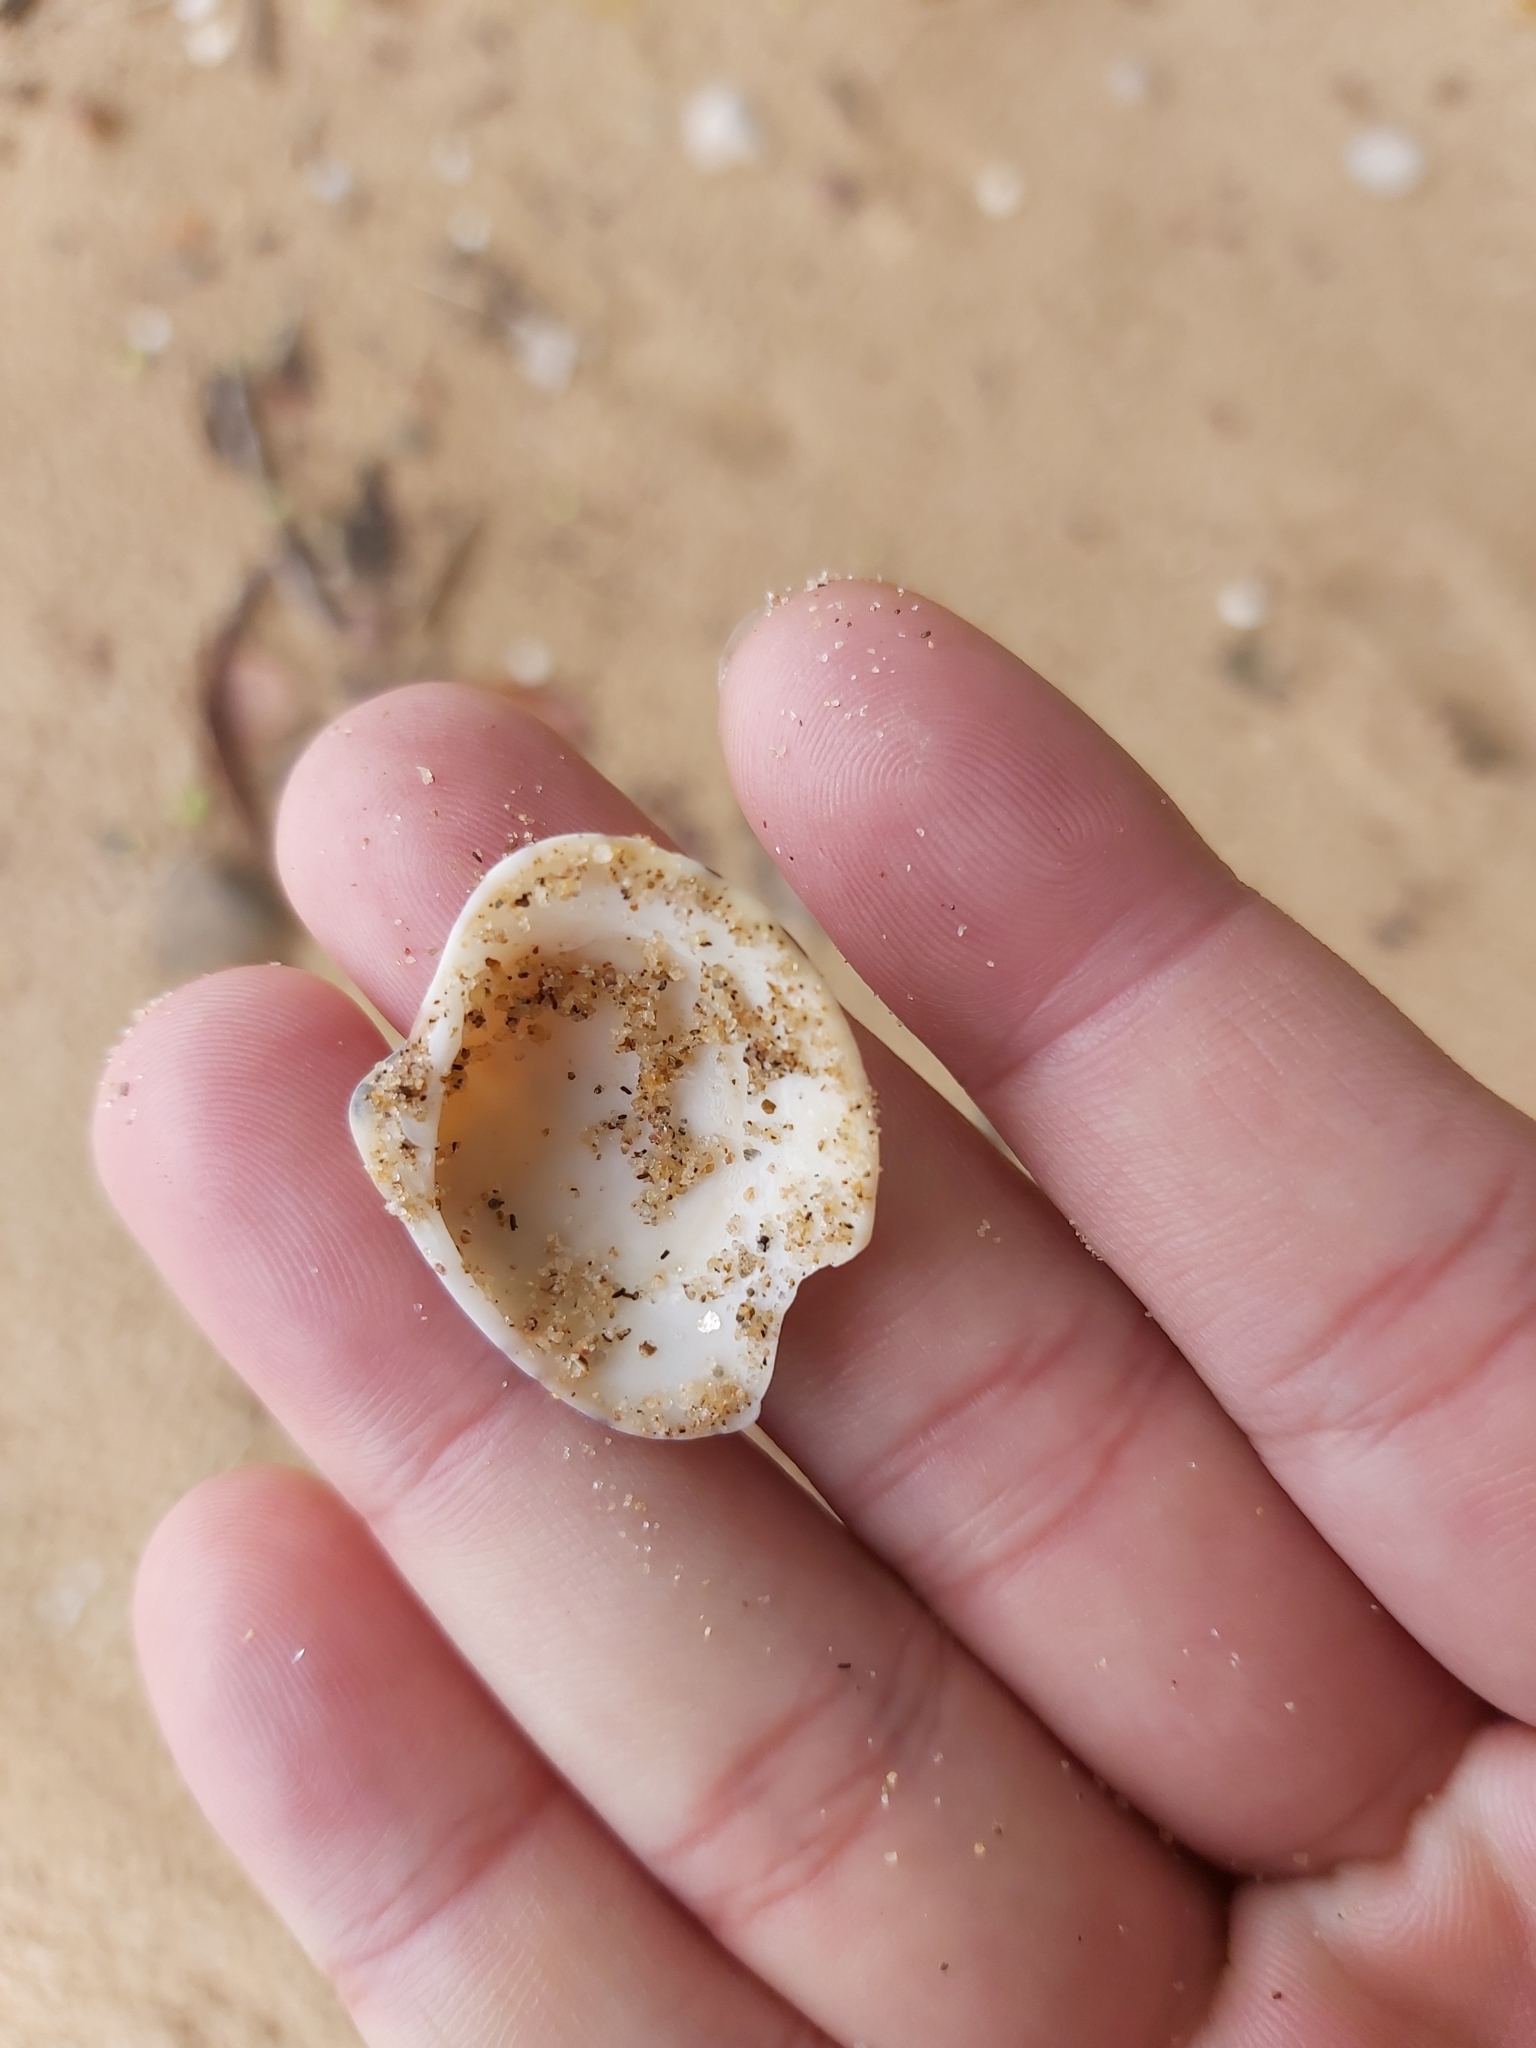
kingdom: Animalia
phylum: Mollusca
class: Bivalvia
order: Venerida
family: Veneridae
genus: Lioconcha
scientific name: Lioconcha fastigiata
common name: Clam
